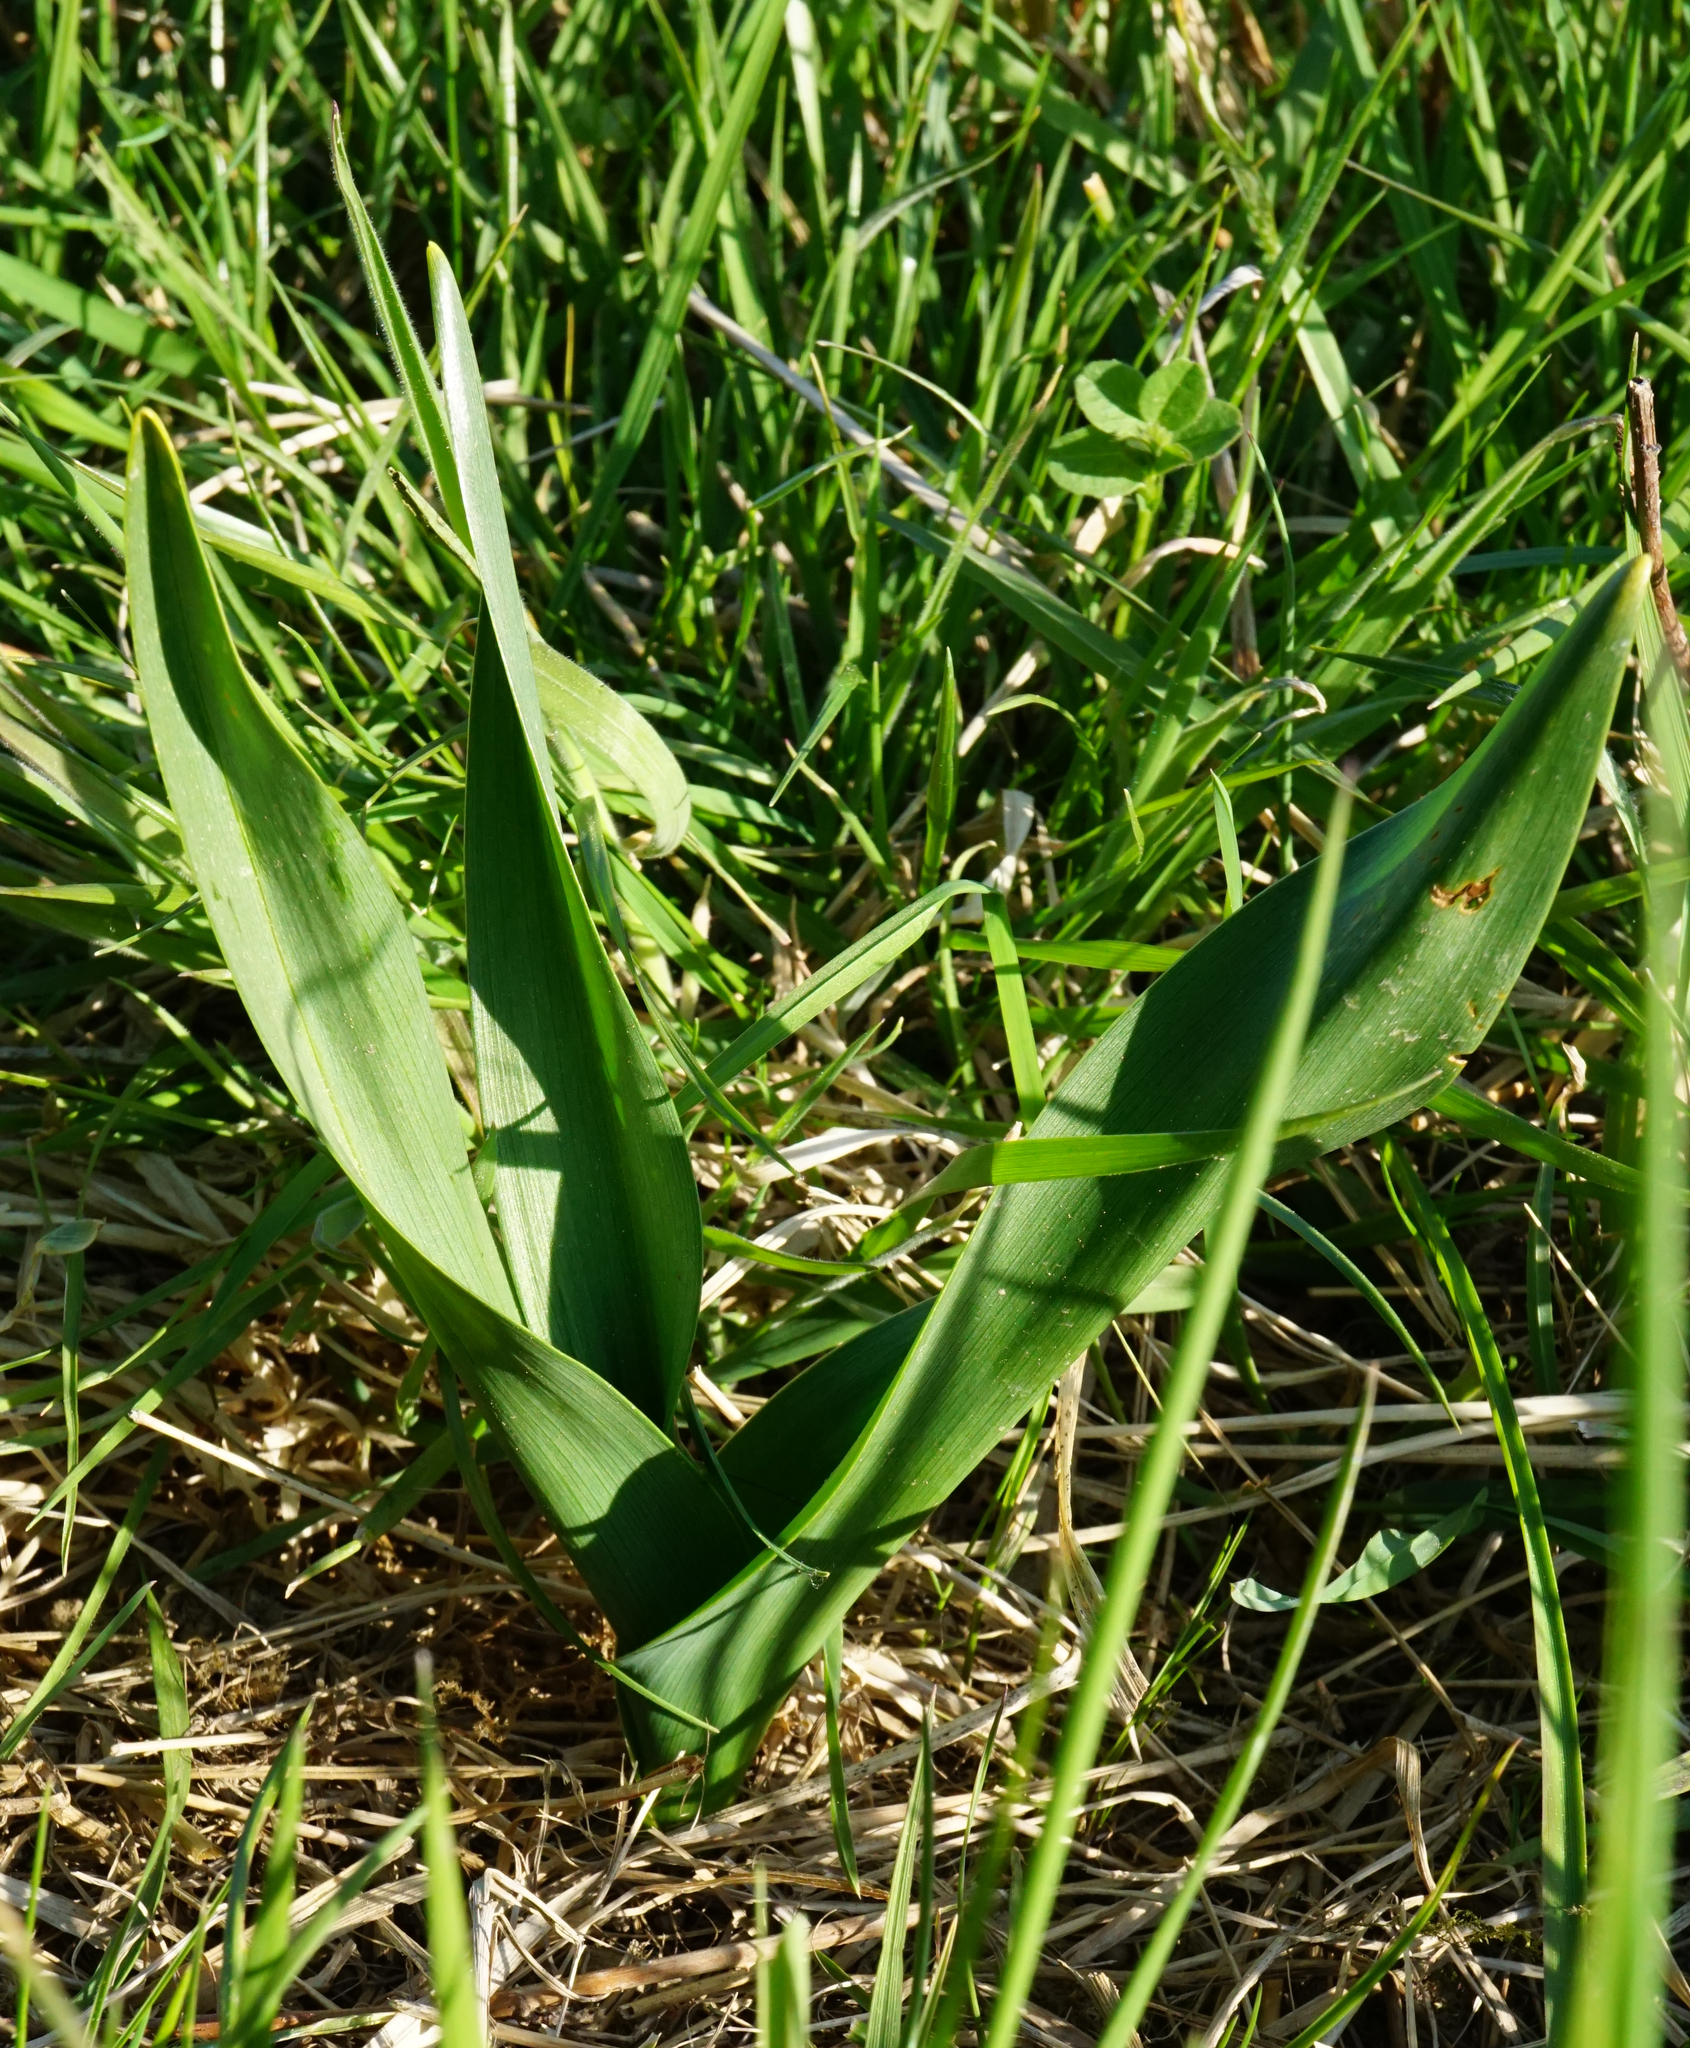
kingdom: Plantae
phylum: Tracheophyta
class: Liliopsida
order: Liliales
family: Colchicaceae
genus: Colchicum
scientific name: Colchicum autumnale
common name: Autumn crocus
